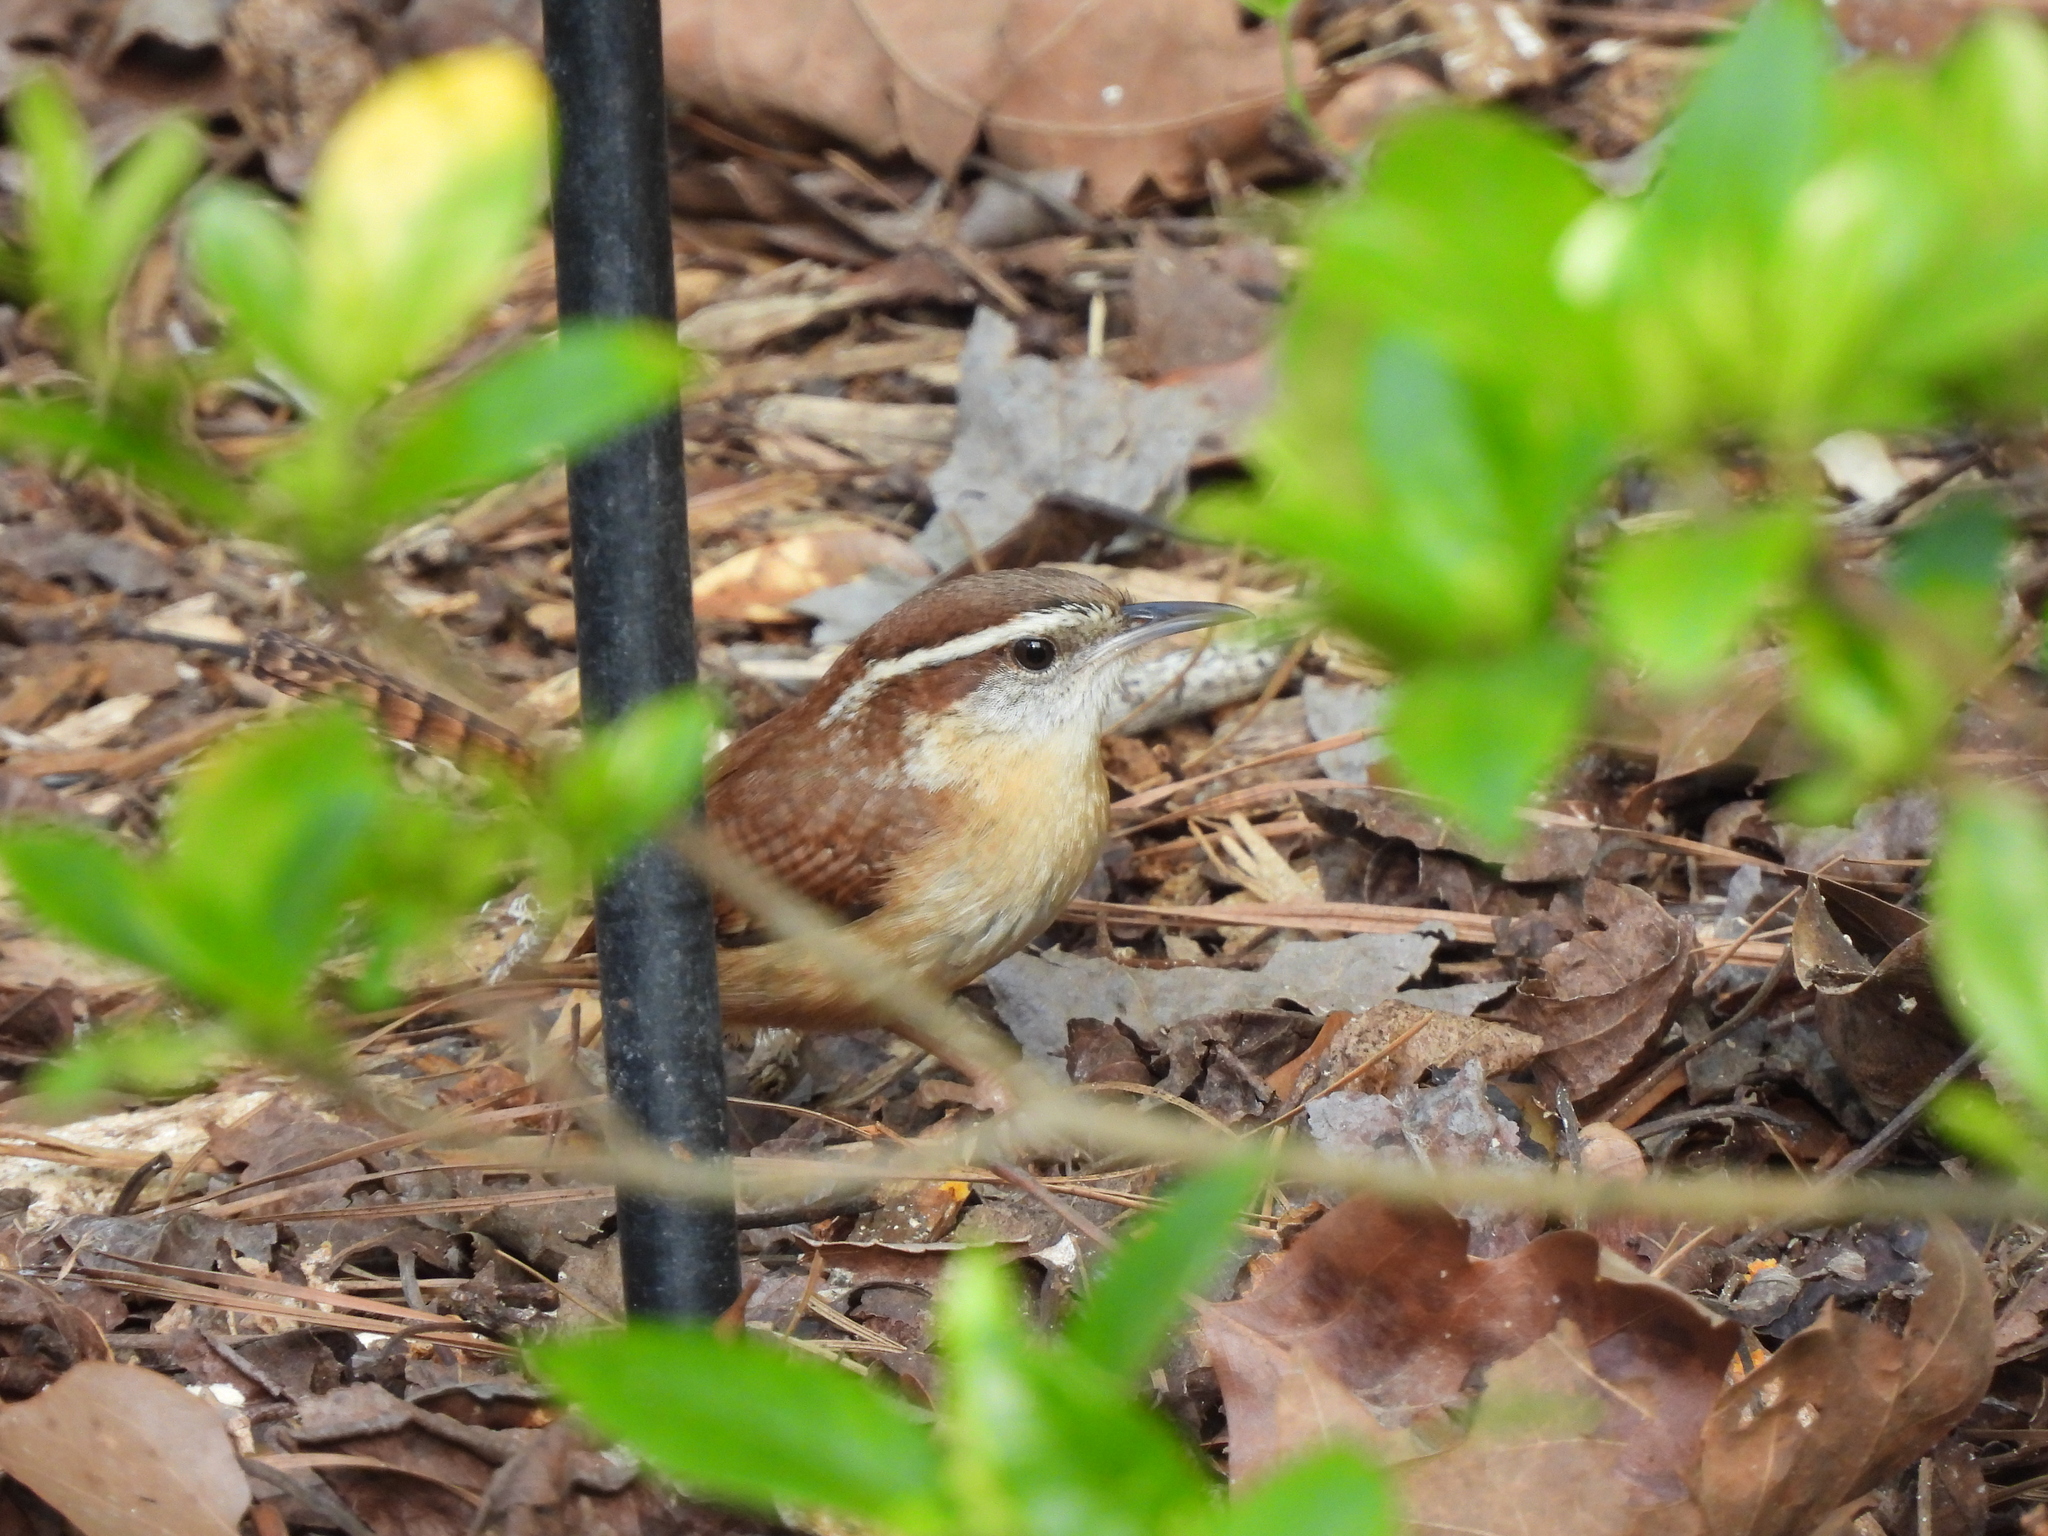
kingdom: Animalia
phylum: Chordata
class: Aves
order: Passeriformes
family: Troglodytidae
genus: Thryothorus
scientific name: Thryothorus ludovicianus
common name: Carolina wren
